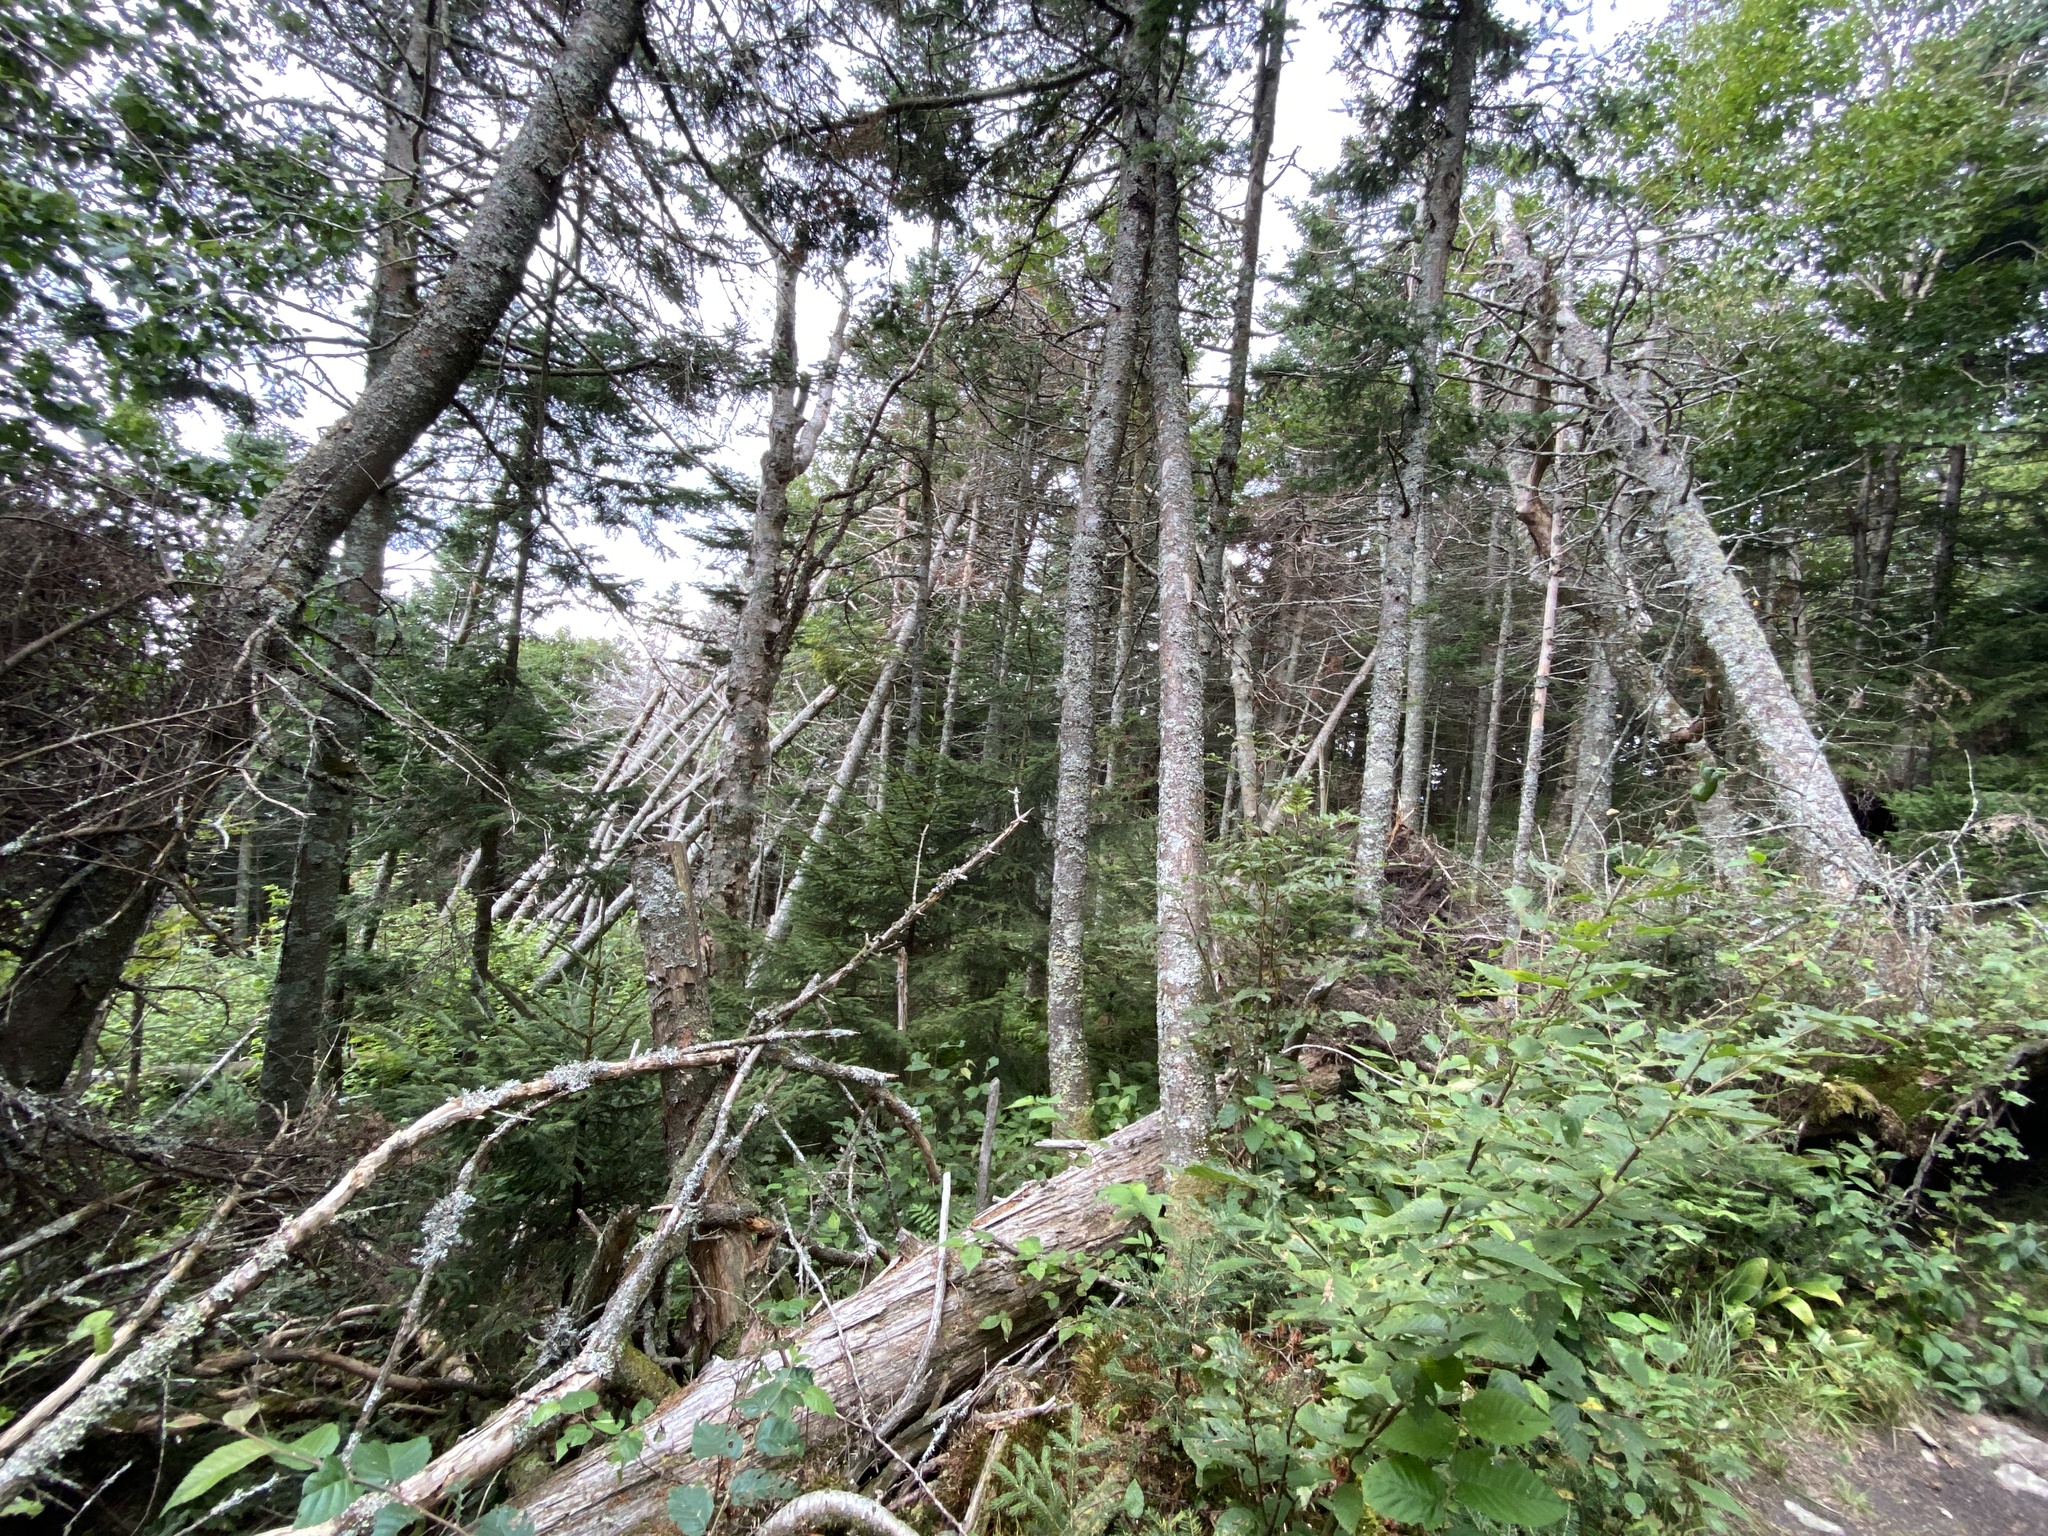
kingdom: Plantae
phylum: Tracheophyta
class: Pinopsida
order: Pinales
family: Pinaceae
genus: Abies
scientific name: Abies balsamea
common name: Balsam fir
